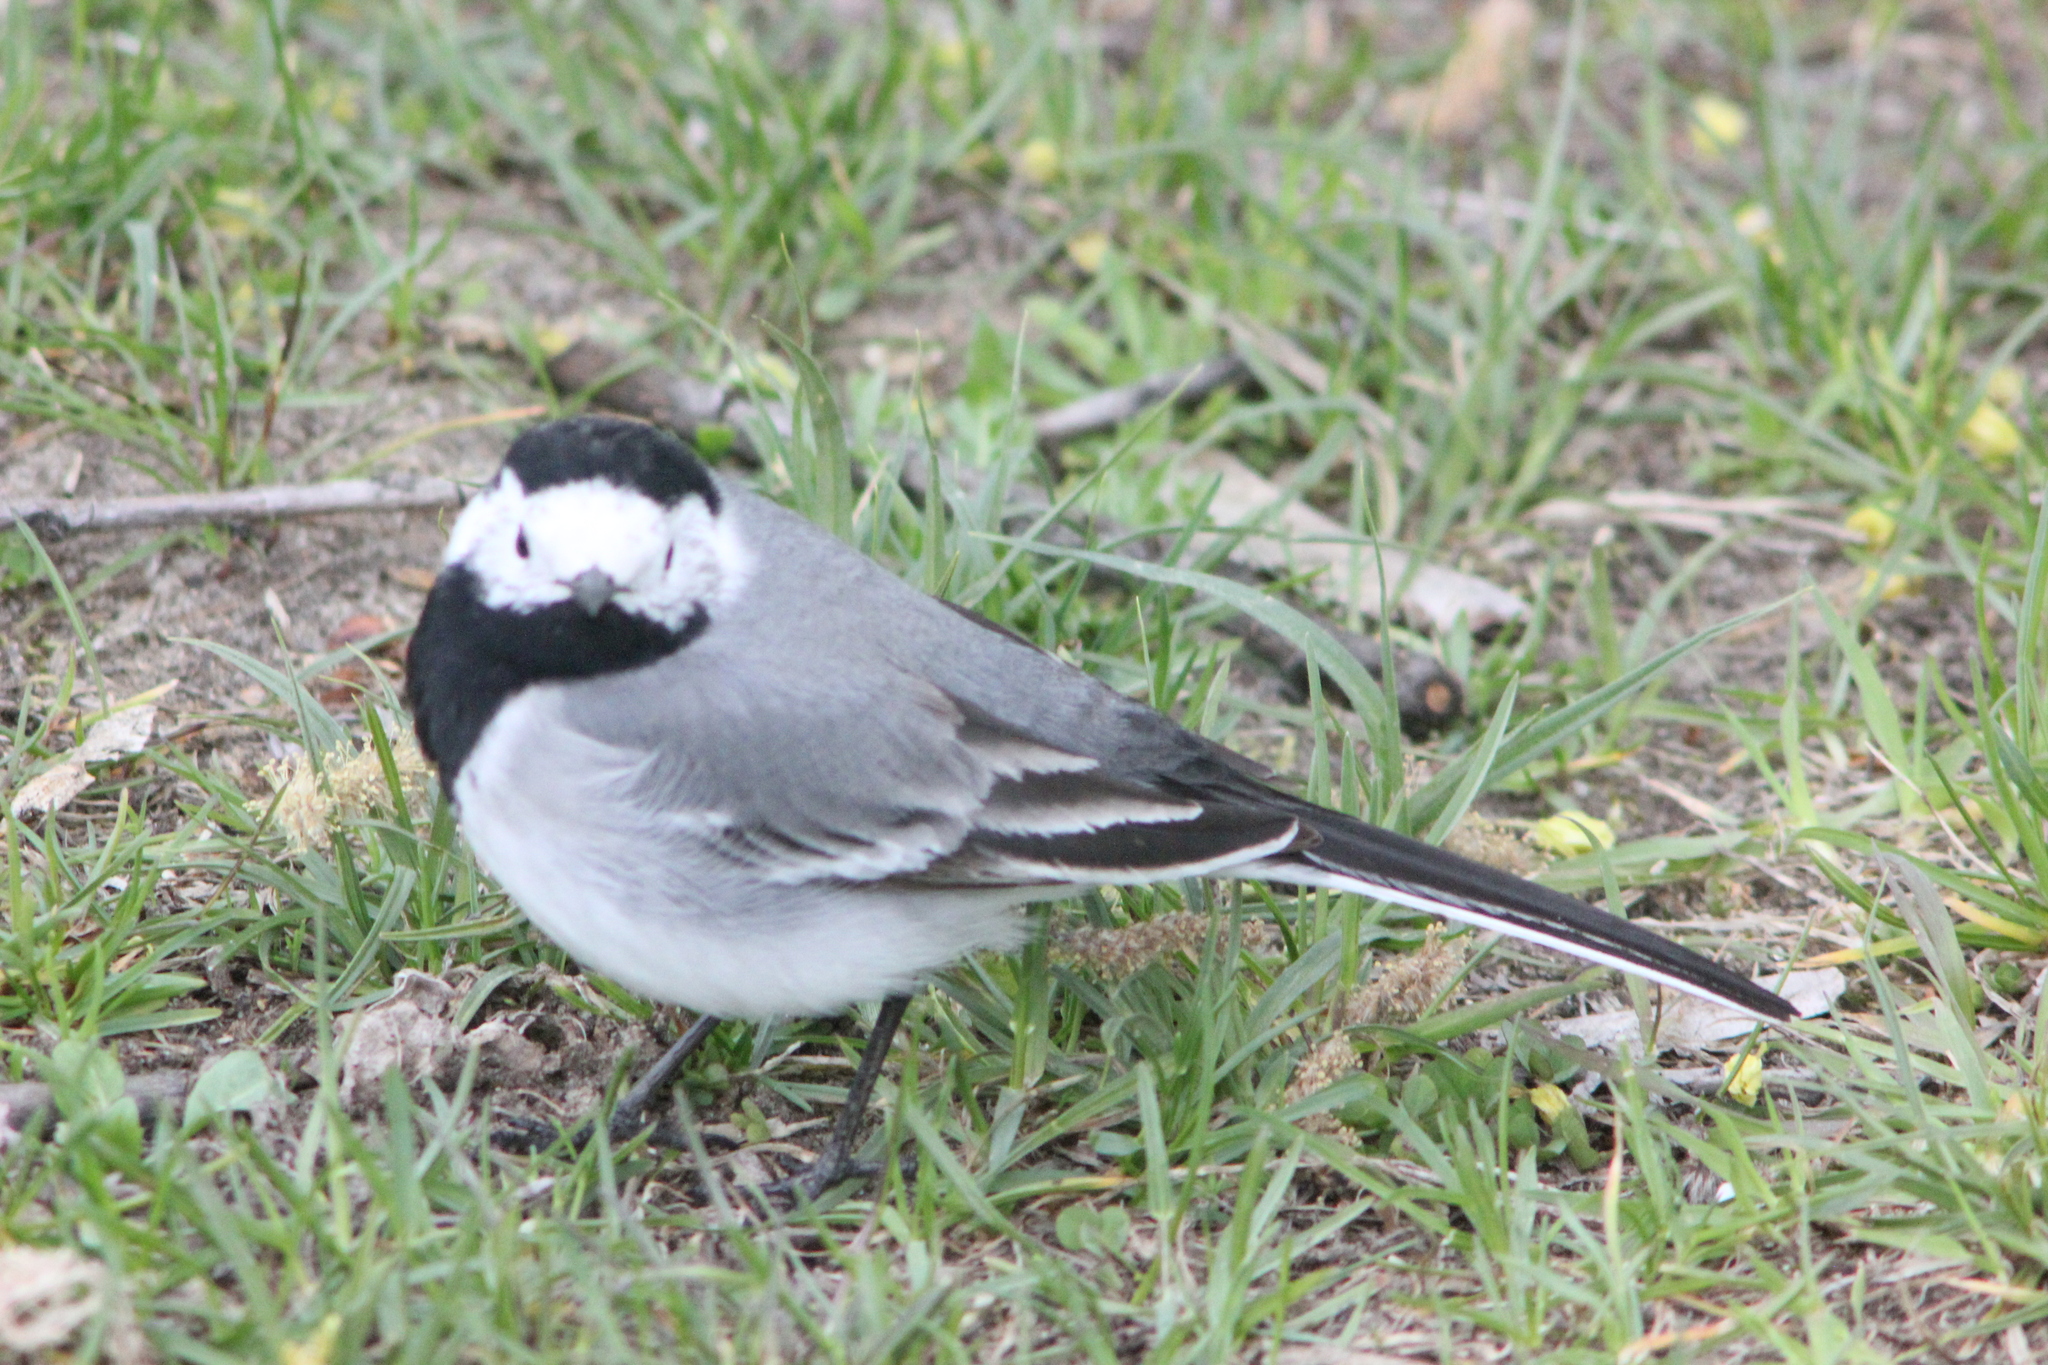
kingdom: Animalia
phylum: Chordata
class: Aves
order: Passeriformes
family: Motacillidae
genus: Motacilla
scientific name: Motacilla alba
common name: White wagtail
